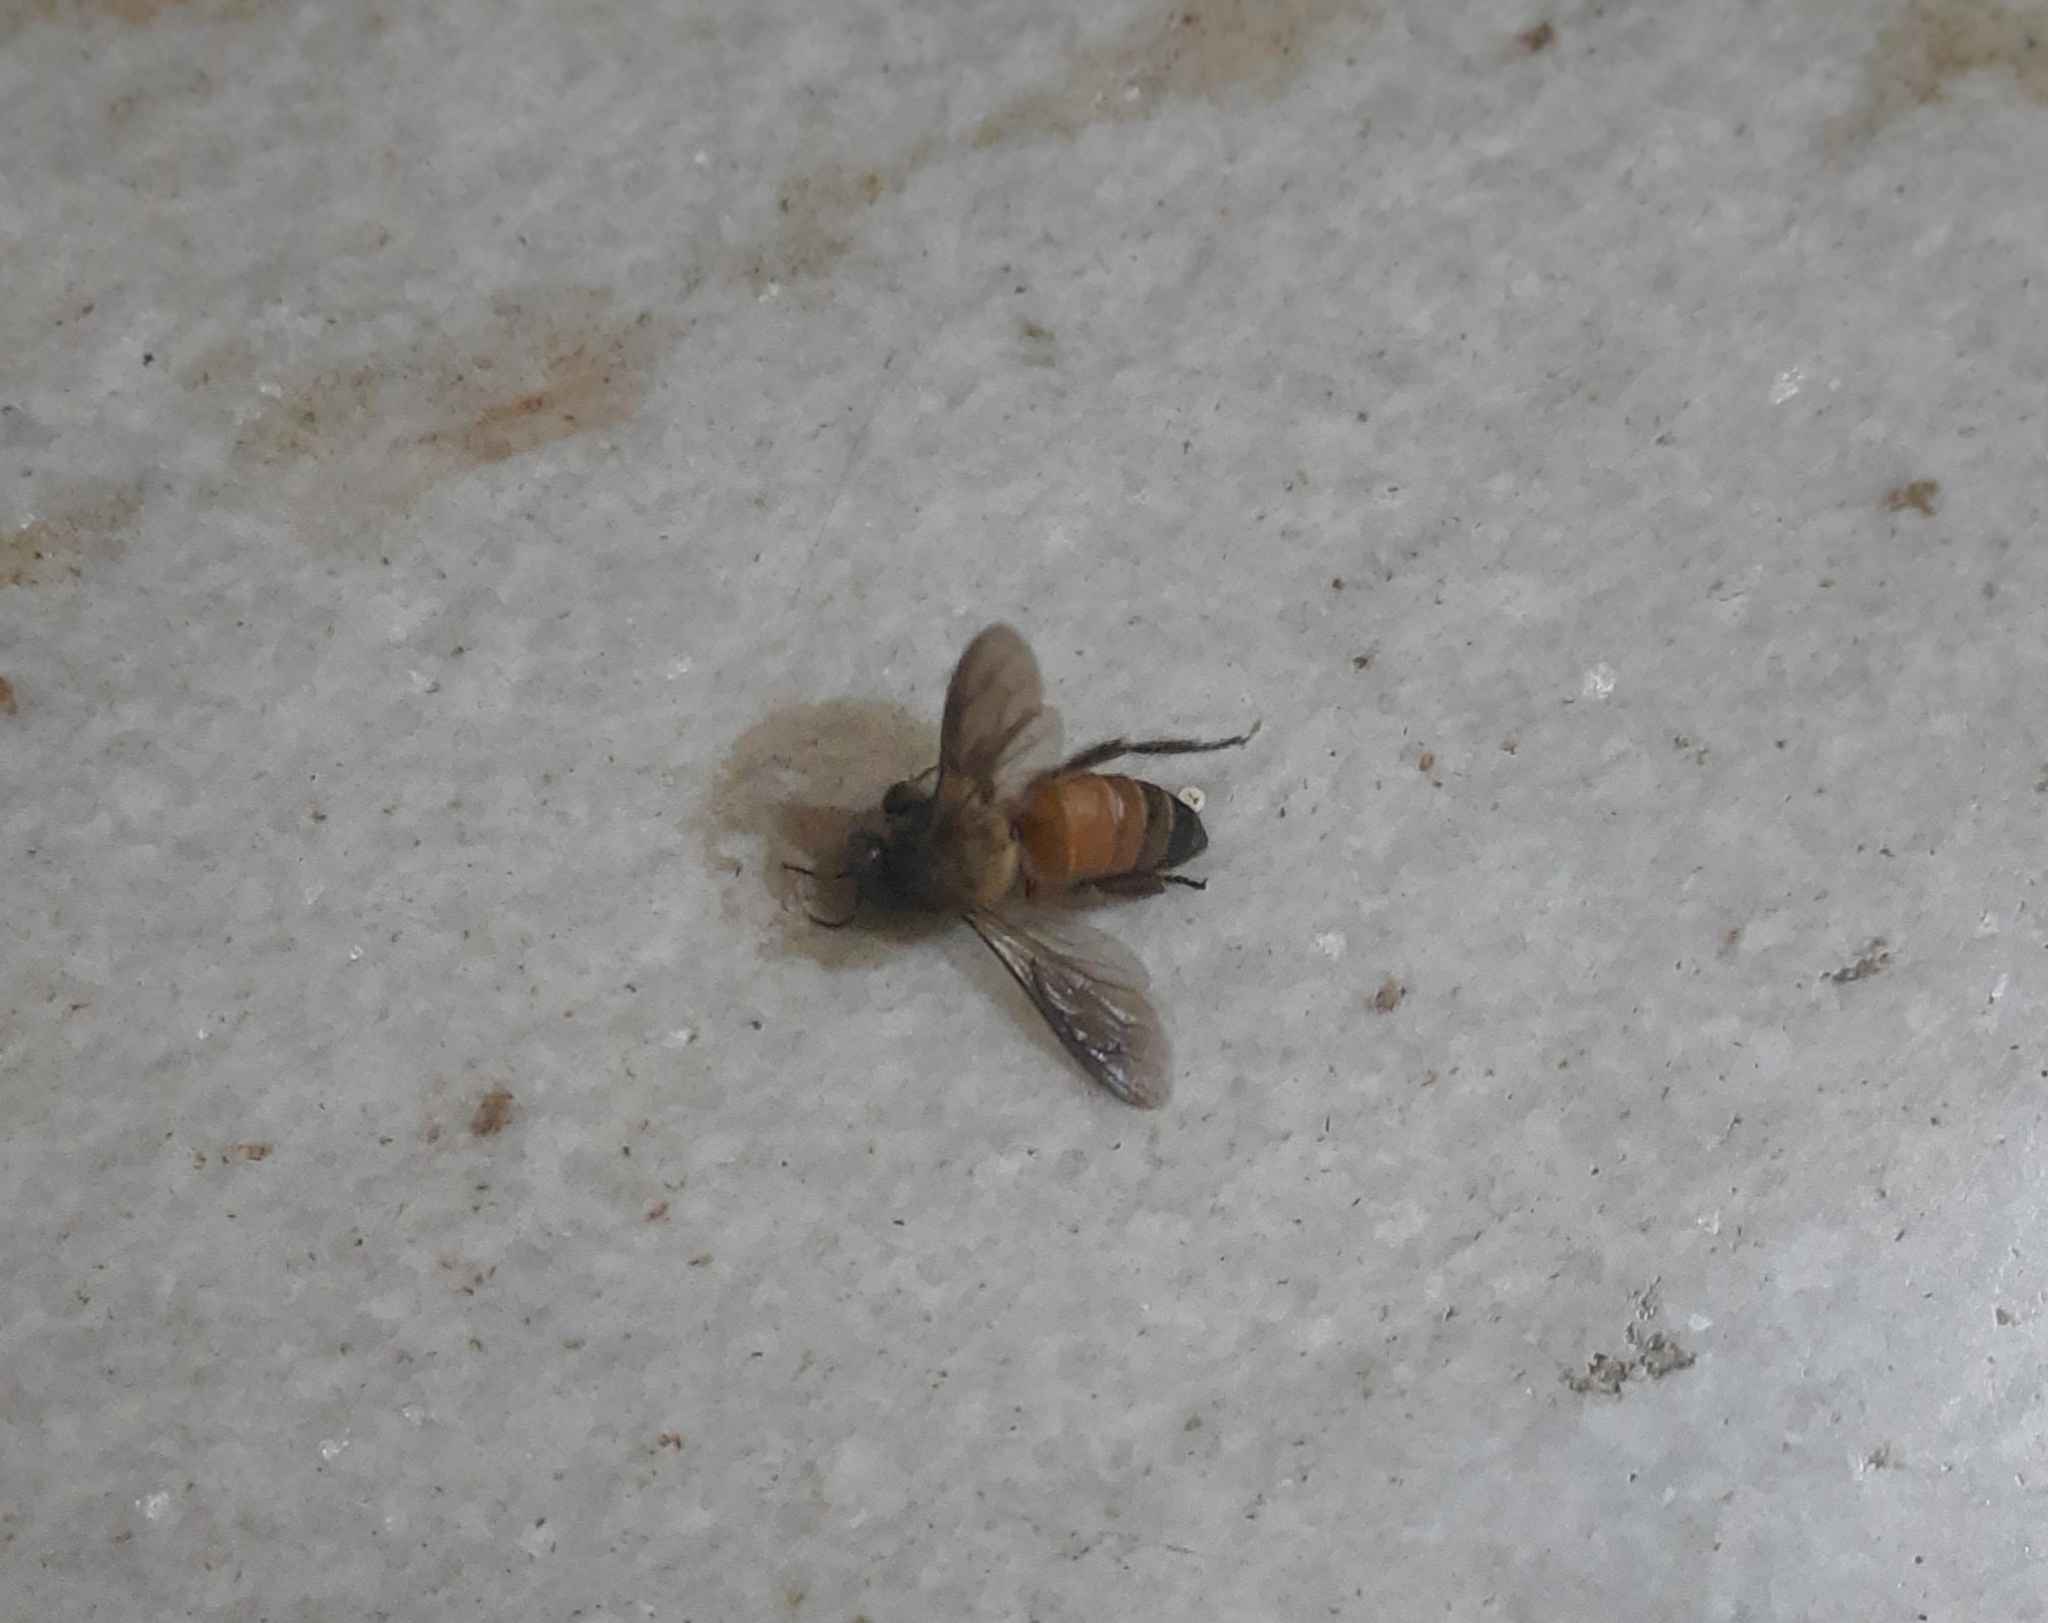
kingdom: Animalia
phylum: Arthropoda
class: Insecta
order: Hymenoptera
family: Apidae
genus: Apis
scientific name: Apis dorsata
